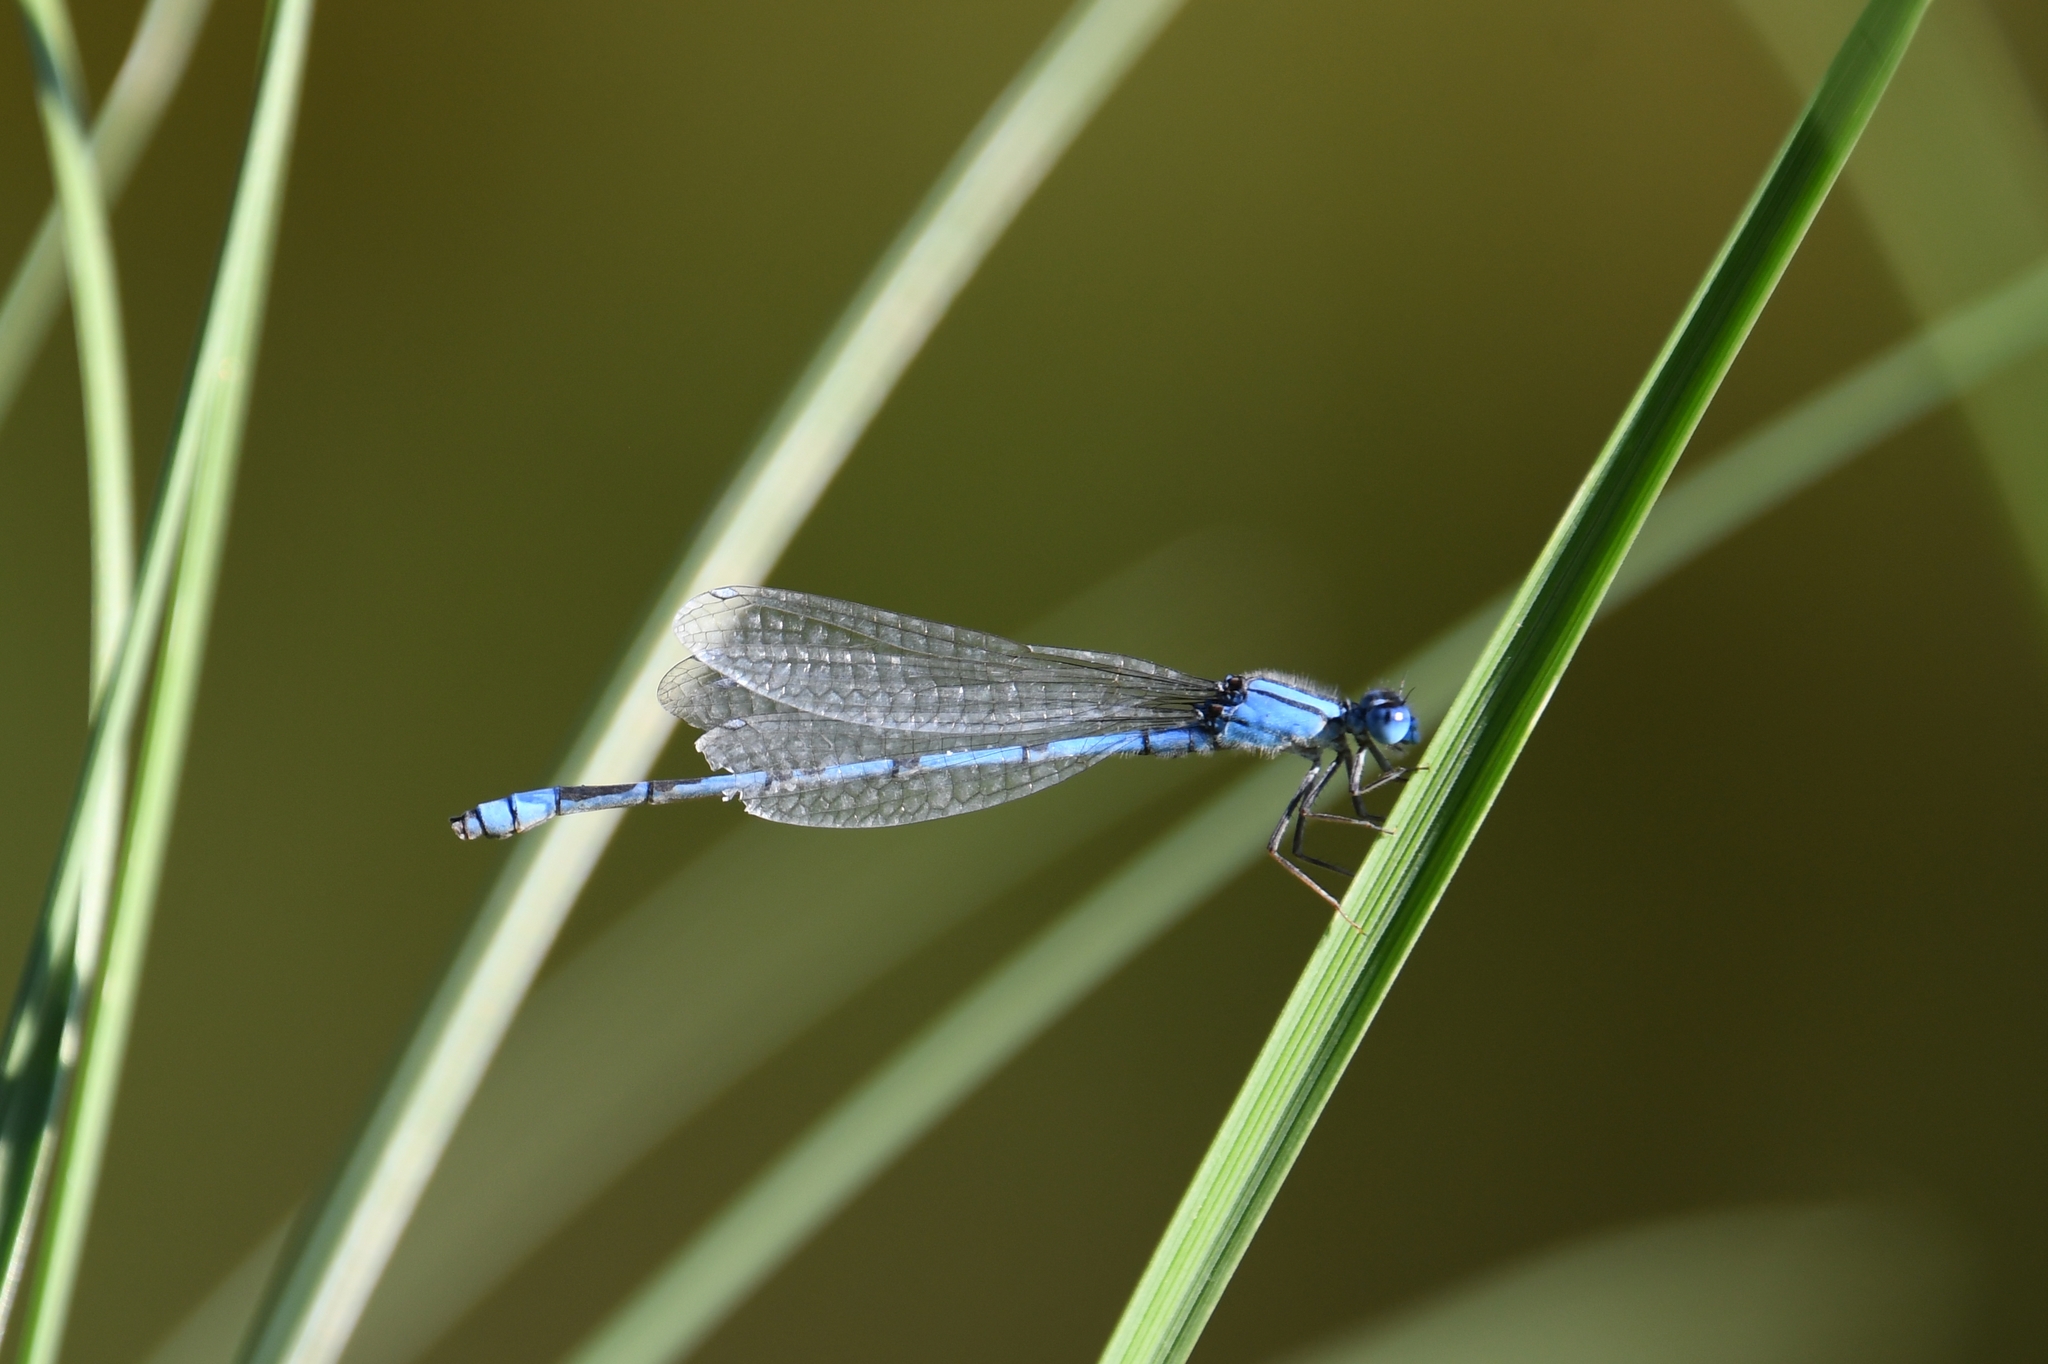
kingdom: Animalia
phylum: Arthropoda
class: Insecta
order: Odonata
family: Coenagrionidae
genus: Enallagma
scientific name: Enallagma civile
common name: Damselfly
